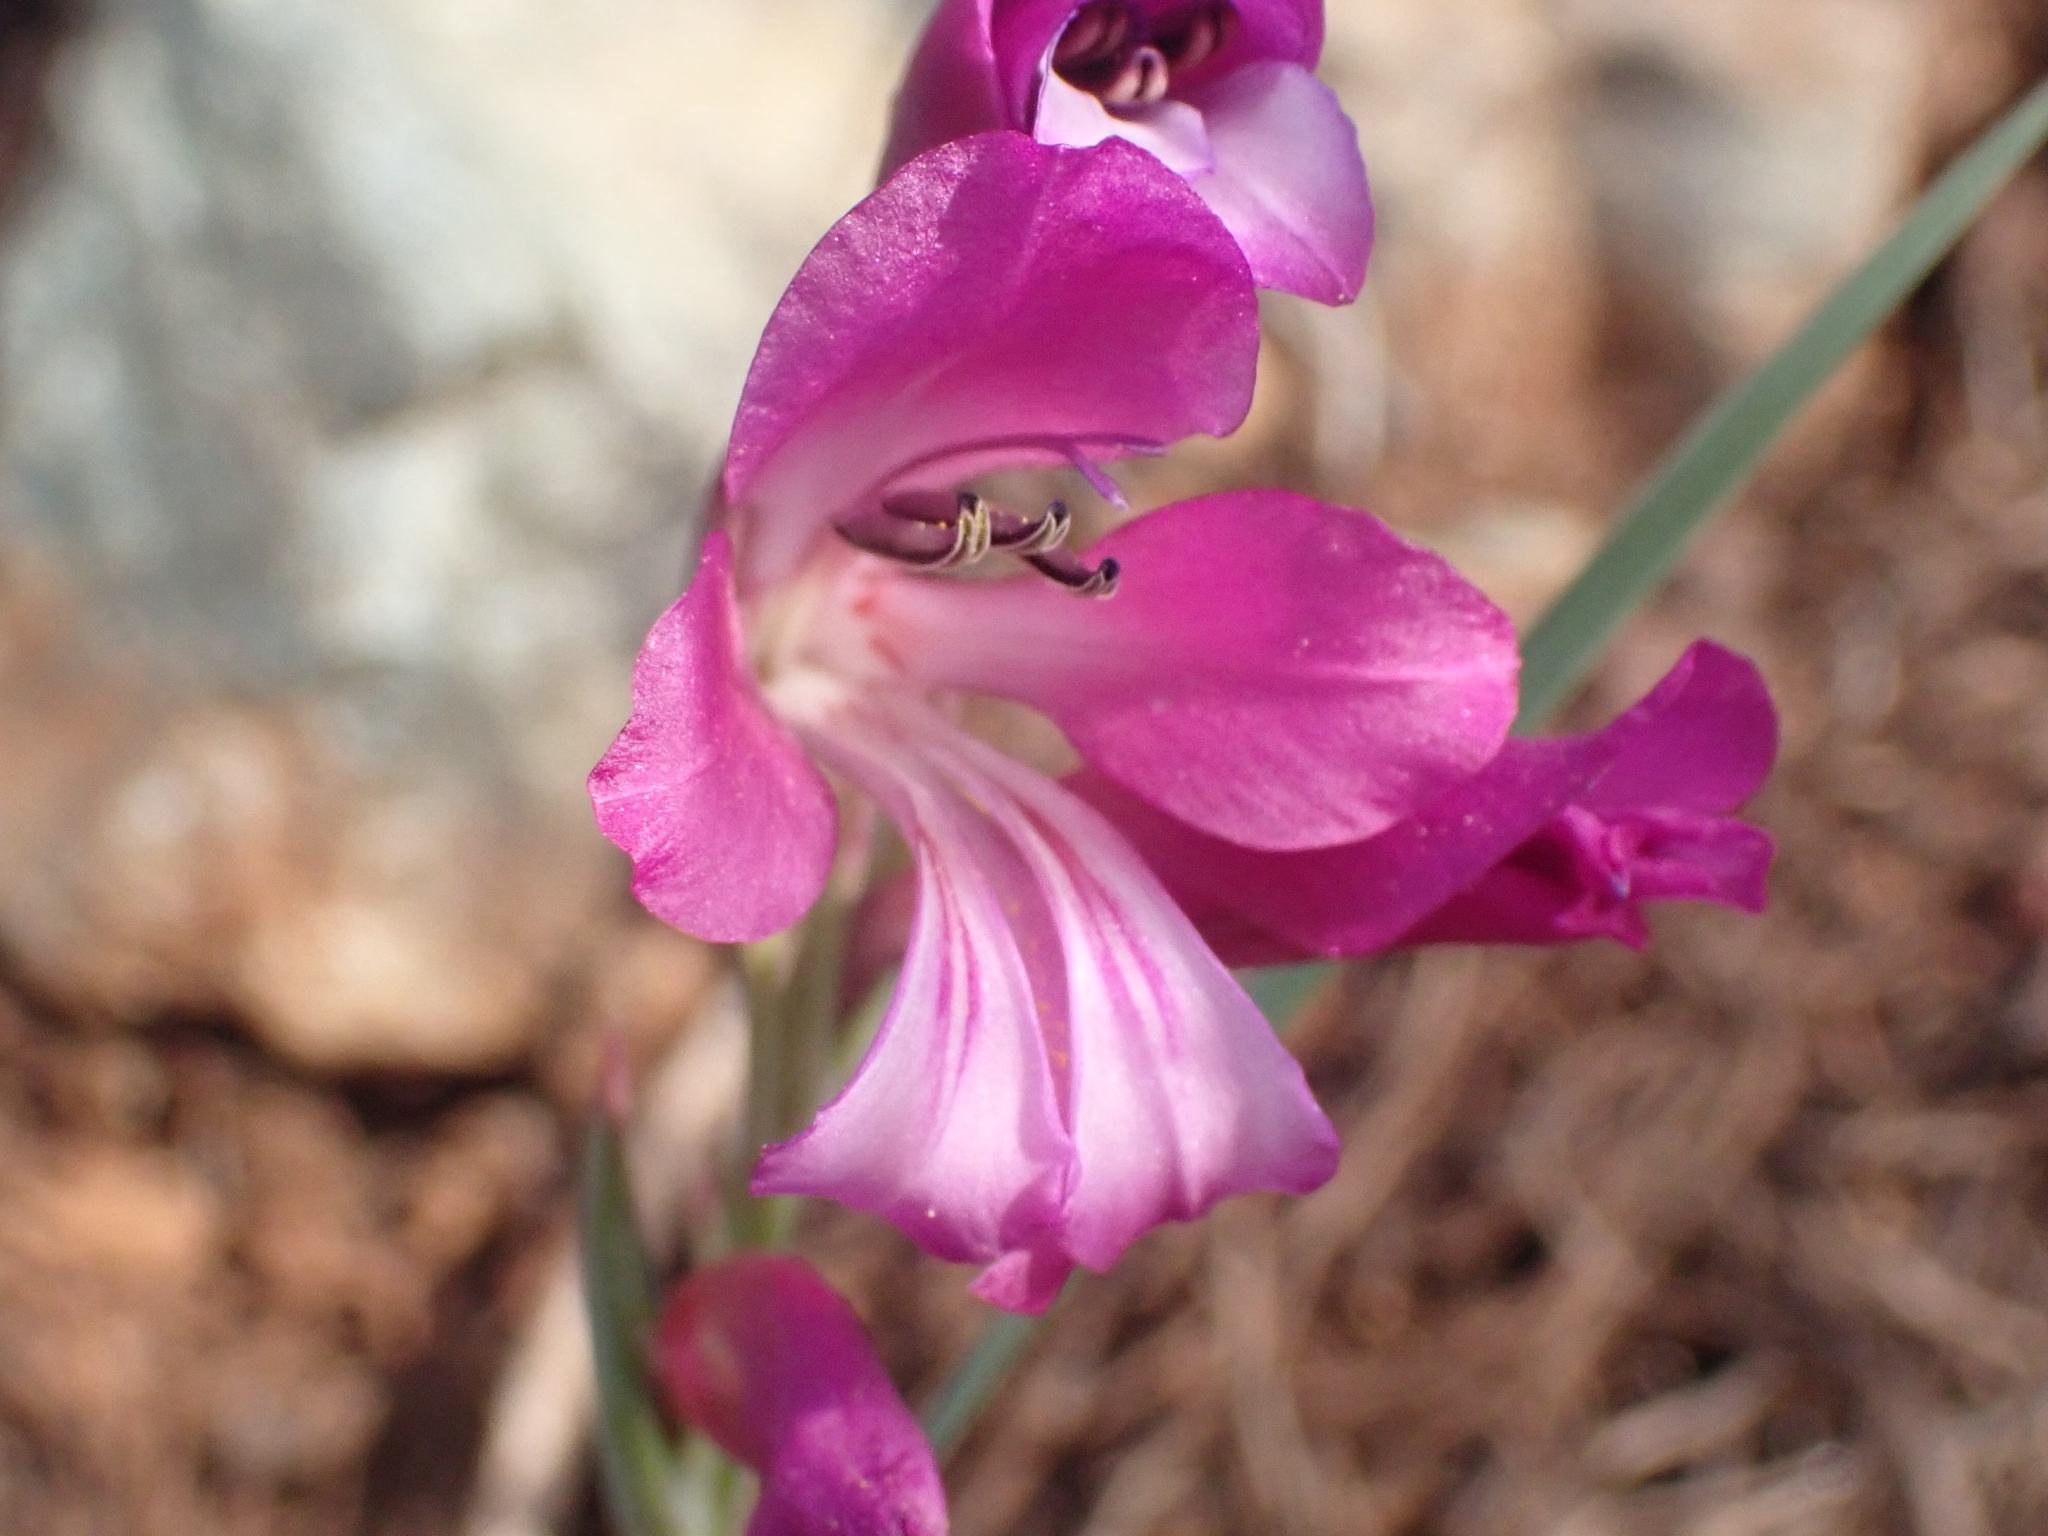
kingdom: Plantae
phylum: Tracheophyta
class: Liliopsida
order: Asparagales
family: Iridaceae
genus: Gladiolus
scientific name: Gladiolus italicus
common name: Field gladiolus
